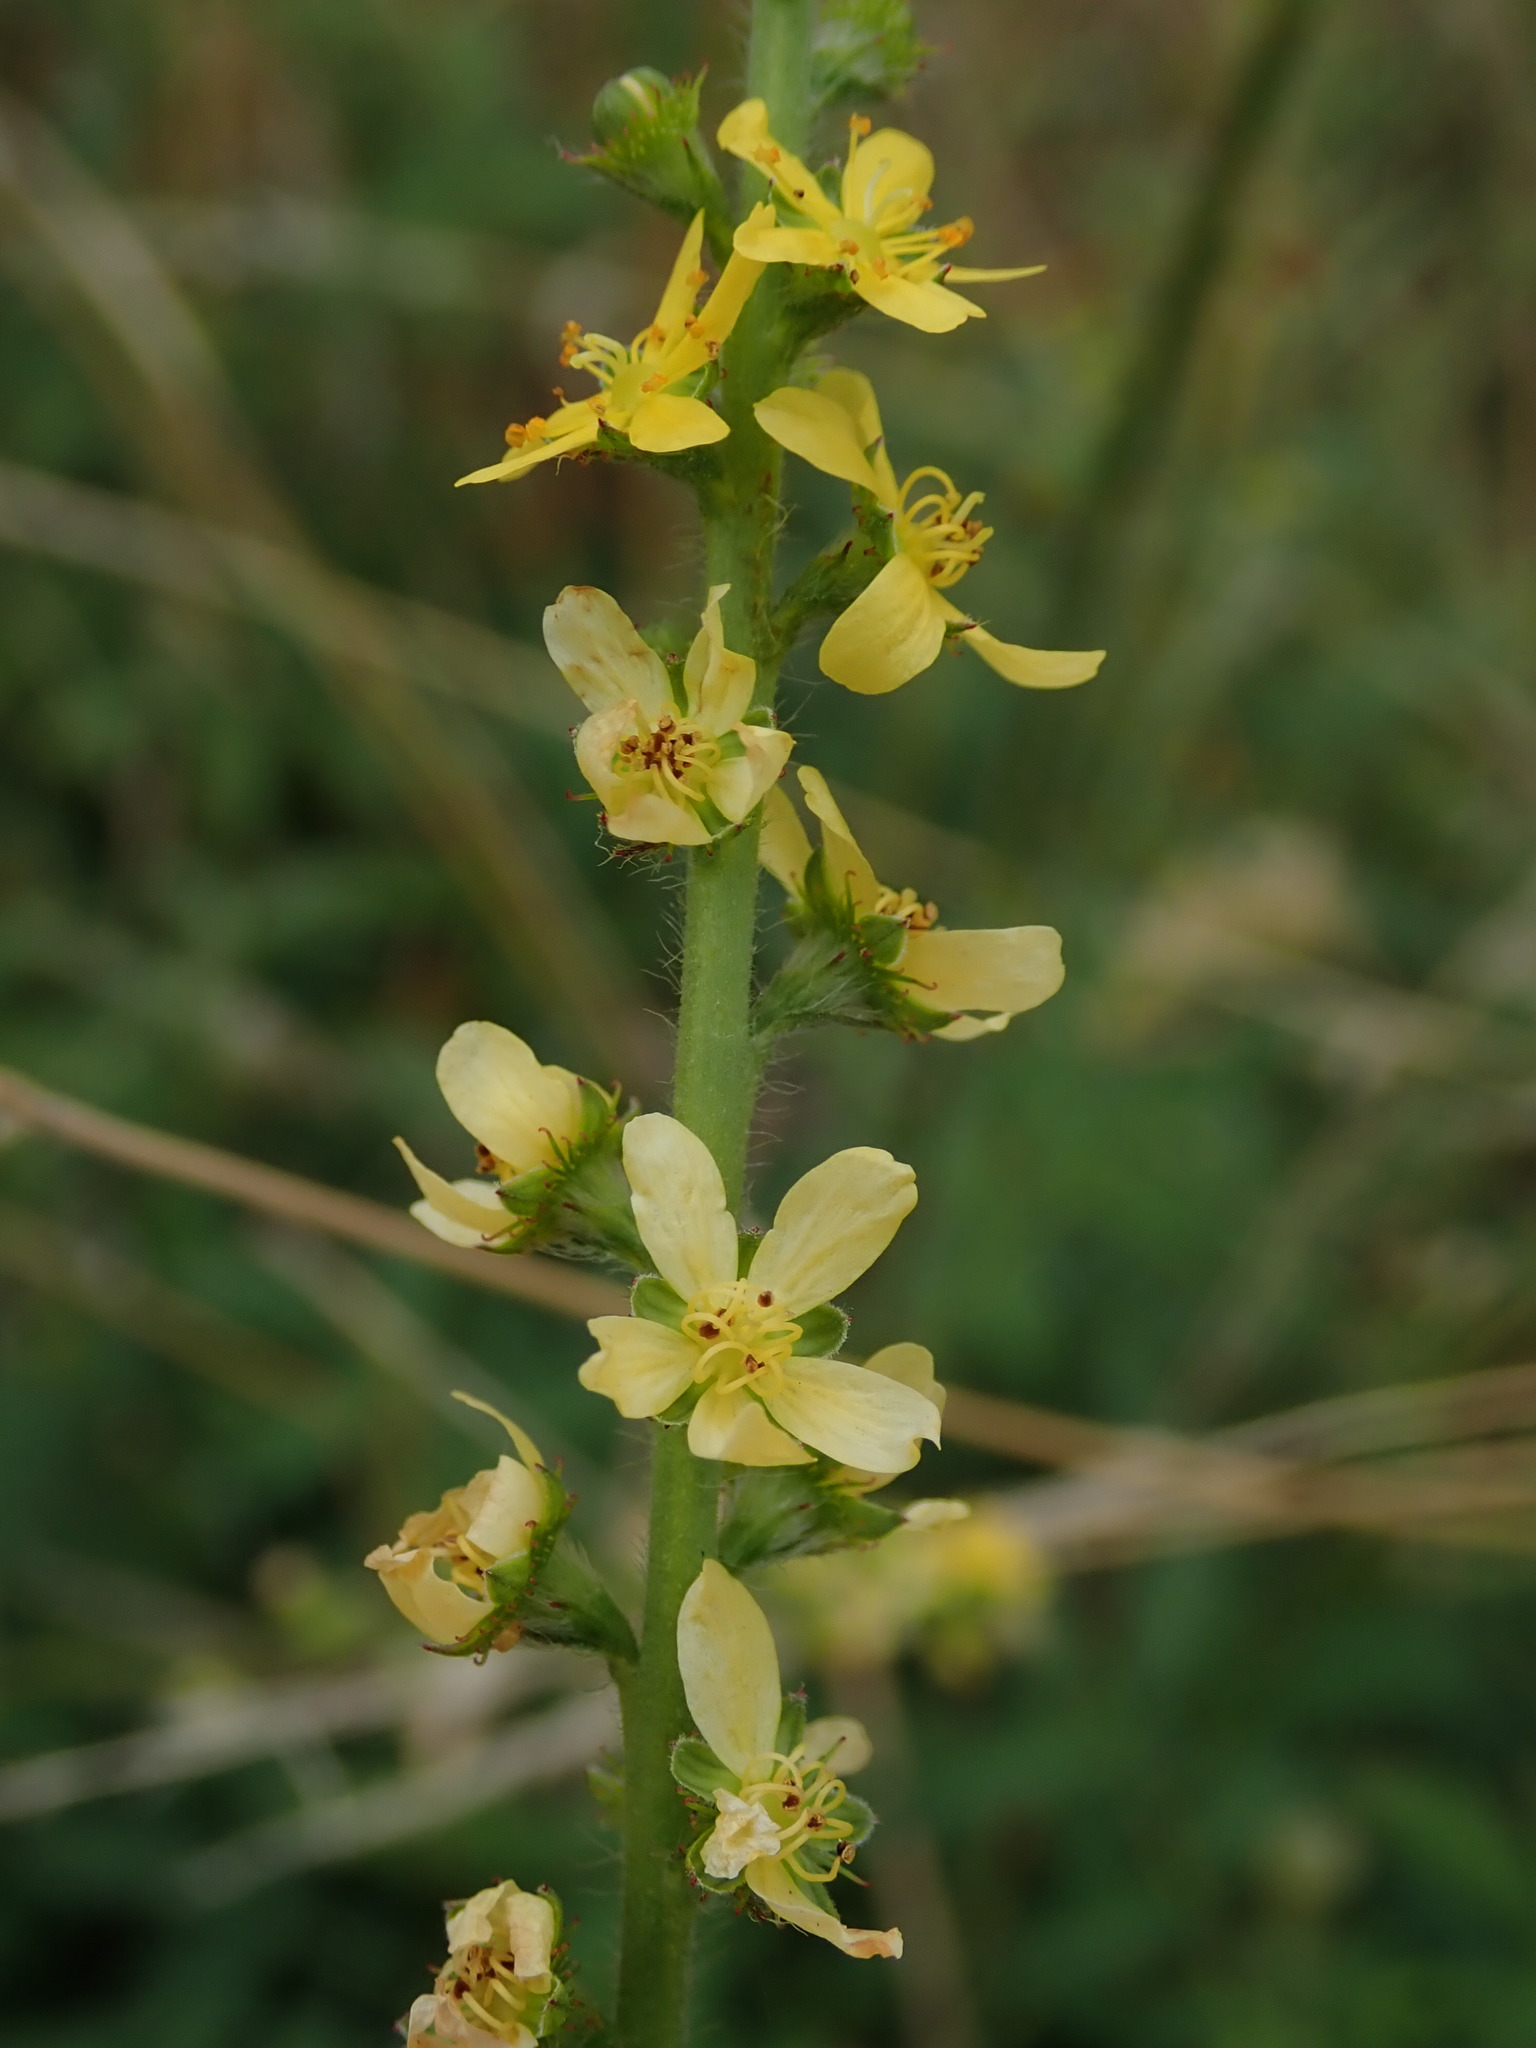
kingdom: Plantae
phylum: Tracheophyta
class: Magnoliopsida
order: Rosales
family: Rosaceae
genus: Agrimonia
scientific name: Agrimonia eupatoria
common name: Agrimony
